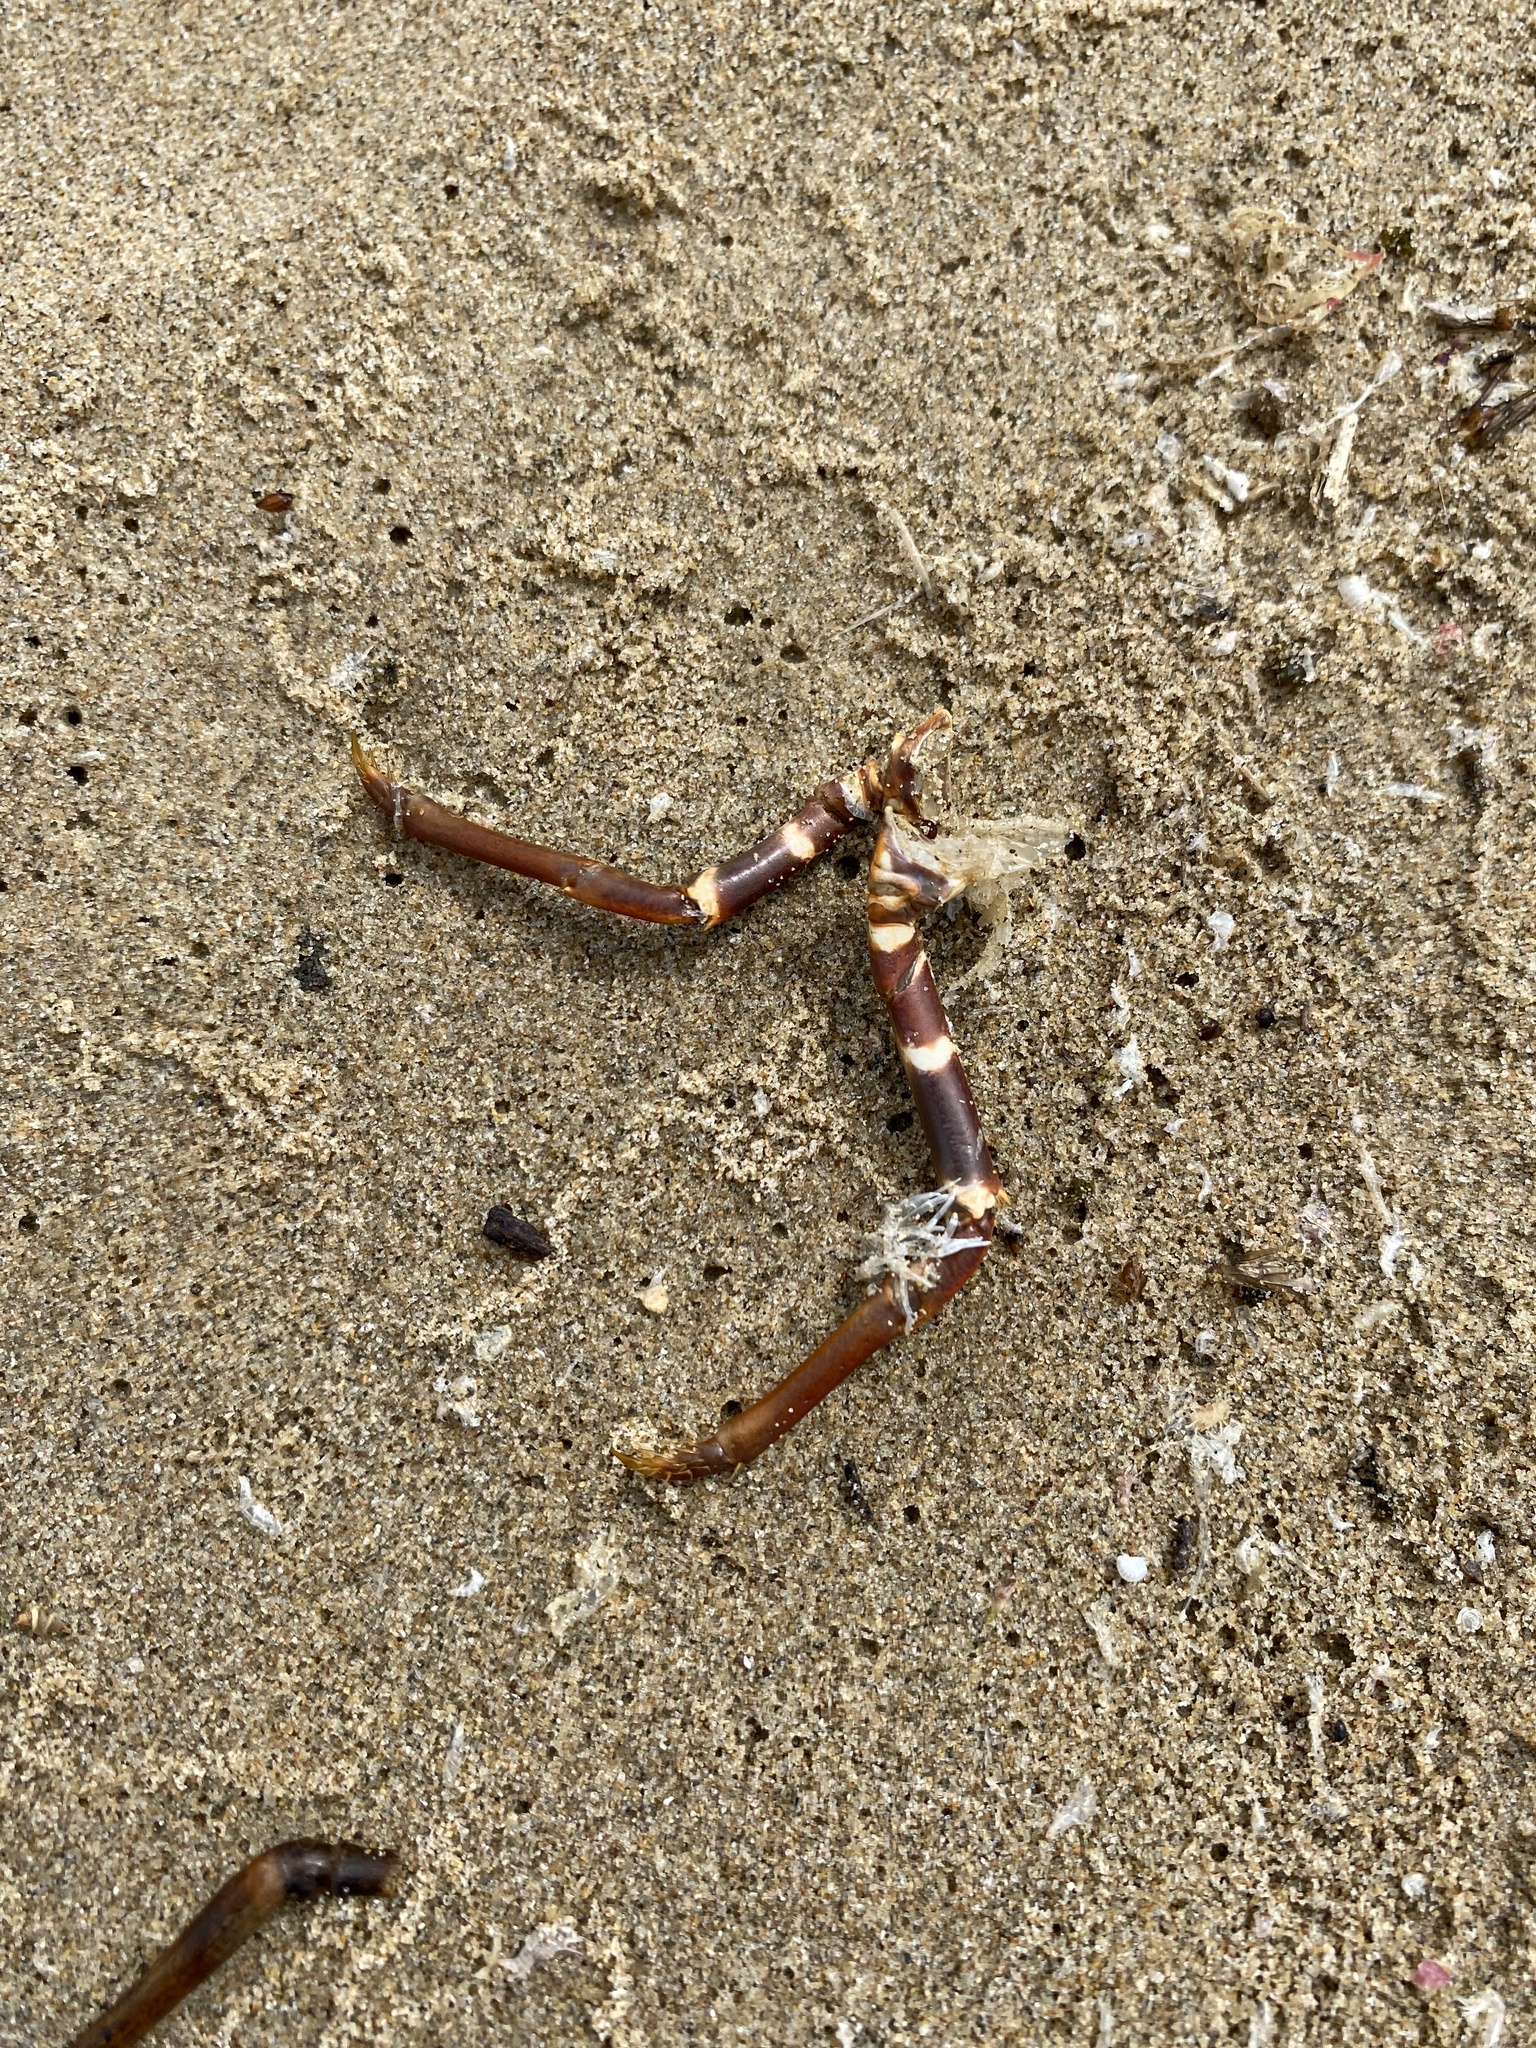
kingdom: Animalia
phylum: Arthropoda
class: Malacostraca
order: Decapoda
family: Palinuridae
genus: Panulirus
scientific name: Panulirus homarus
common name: Scalloped spiny lobster
